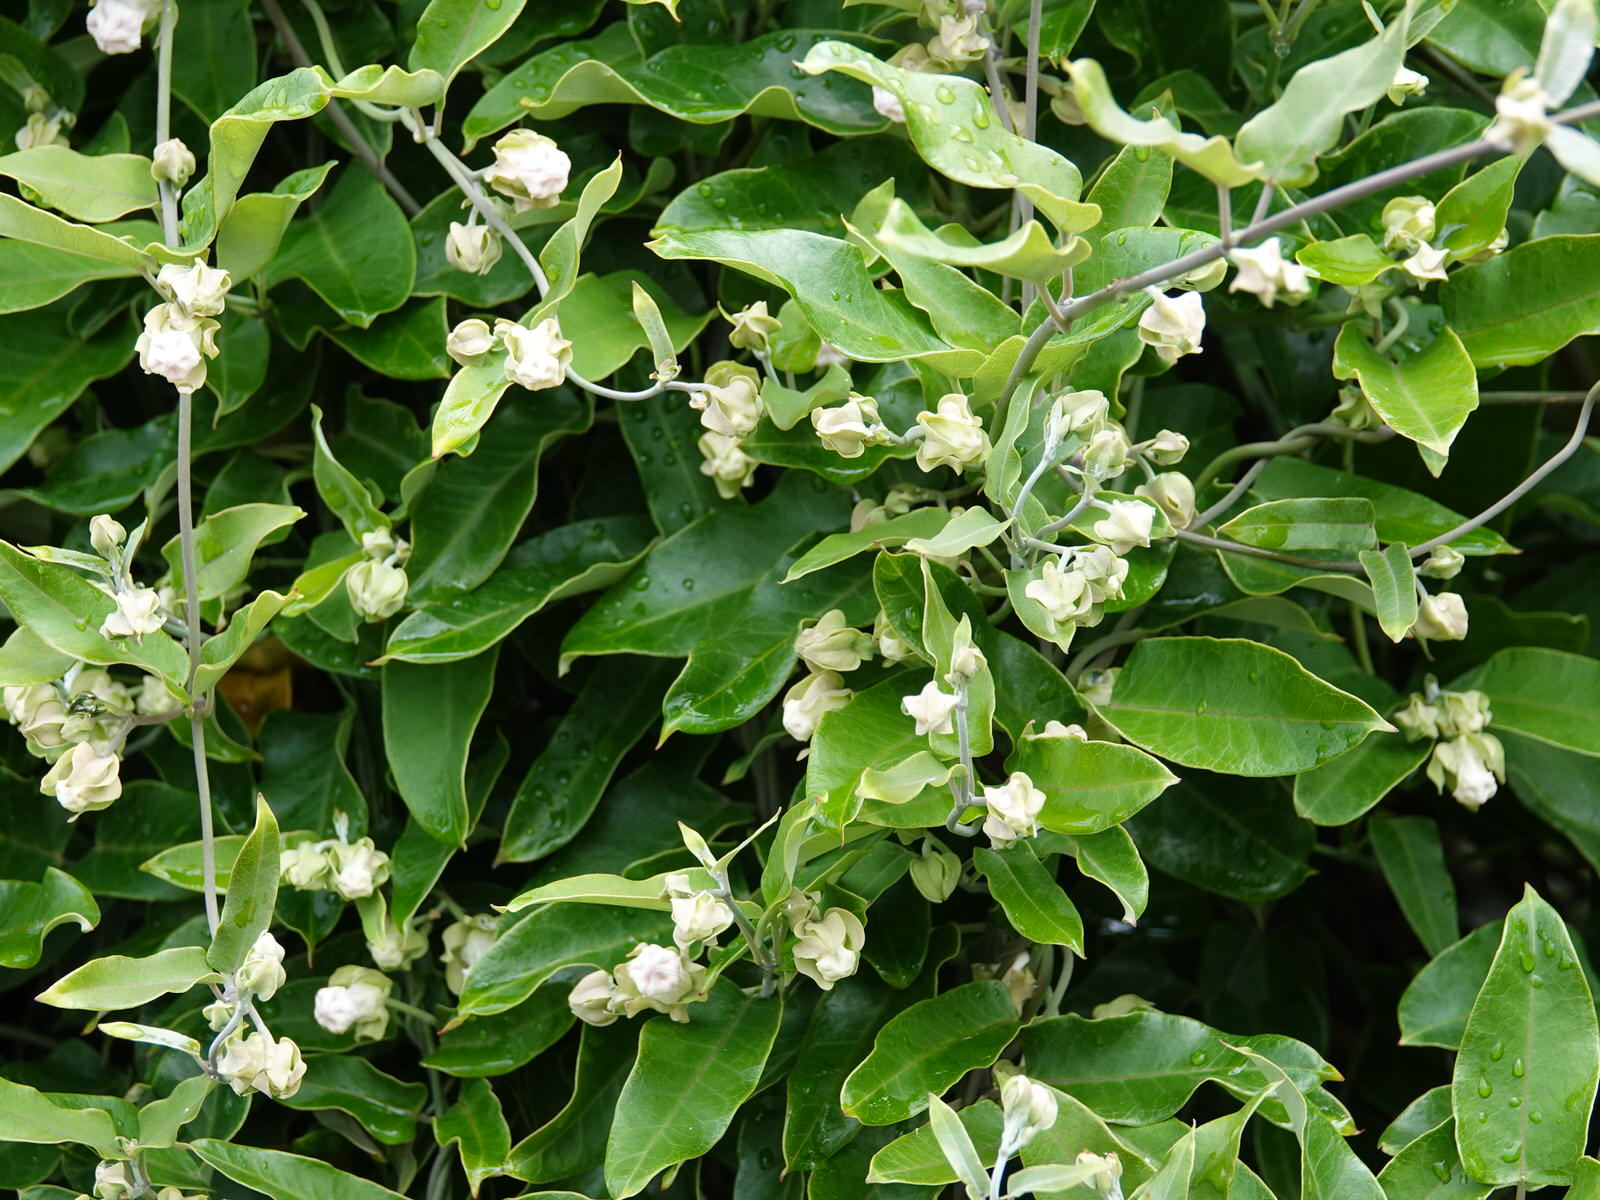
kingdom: Plantae
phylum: Tracheophyta
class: Magnoliopsida
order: Gentianales
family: Apocynaceae
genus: Araujia
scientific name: Araujia sericifera
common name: White bladderflower
